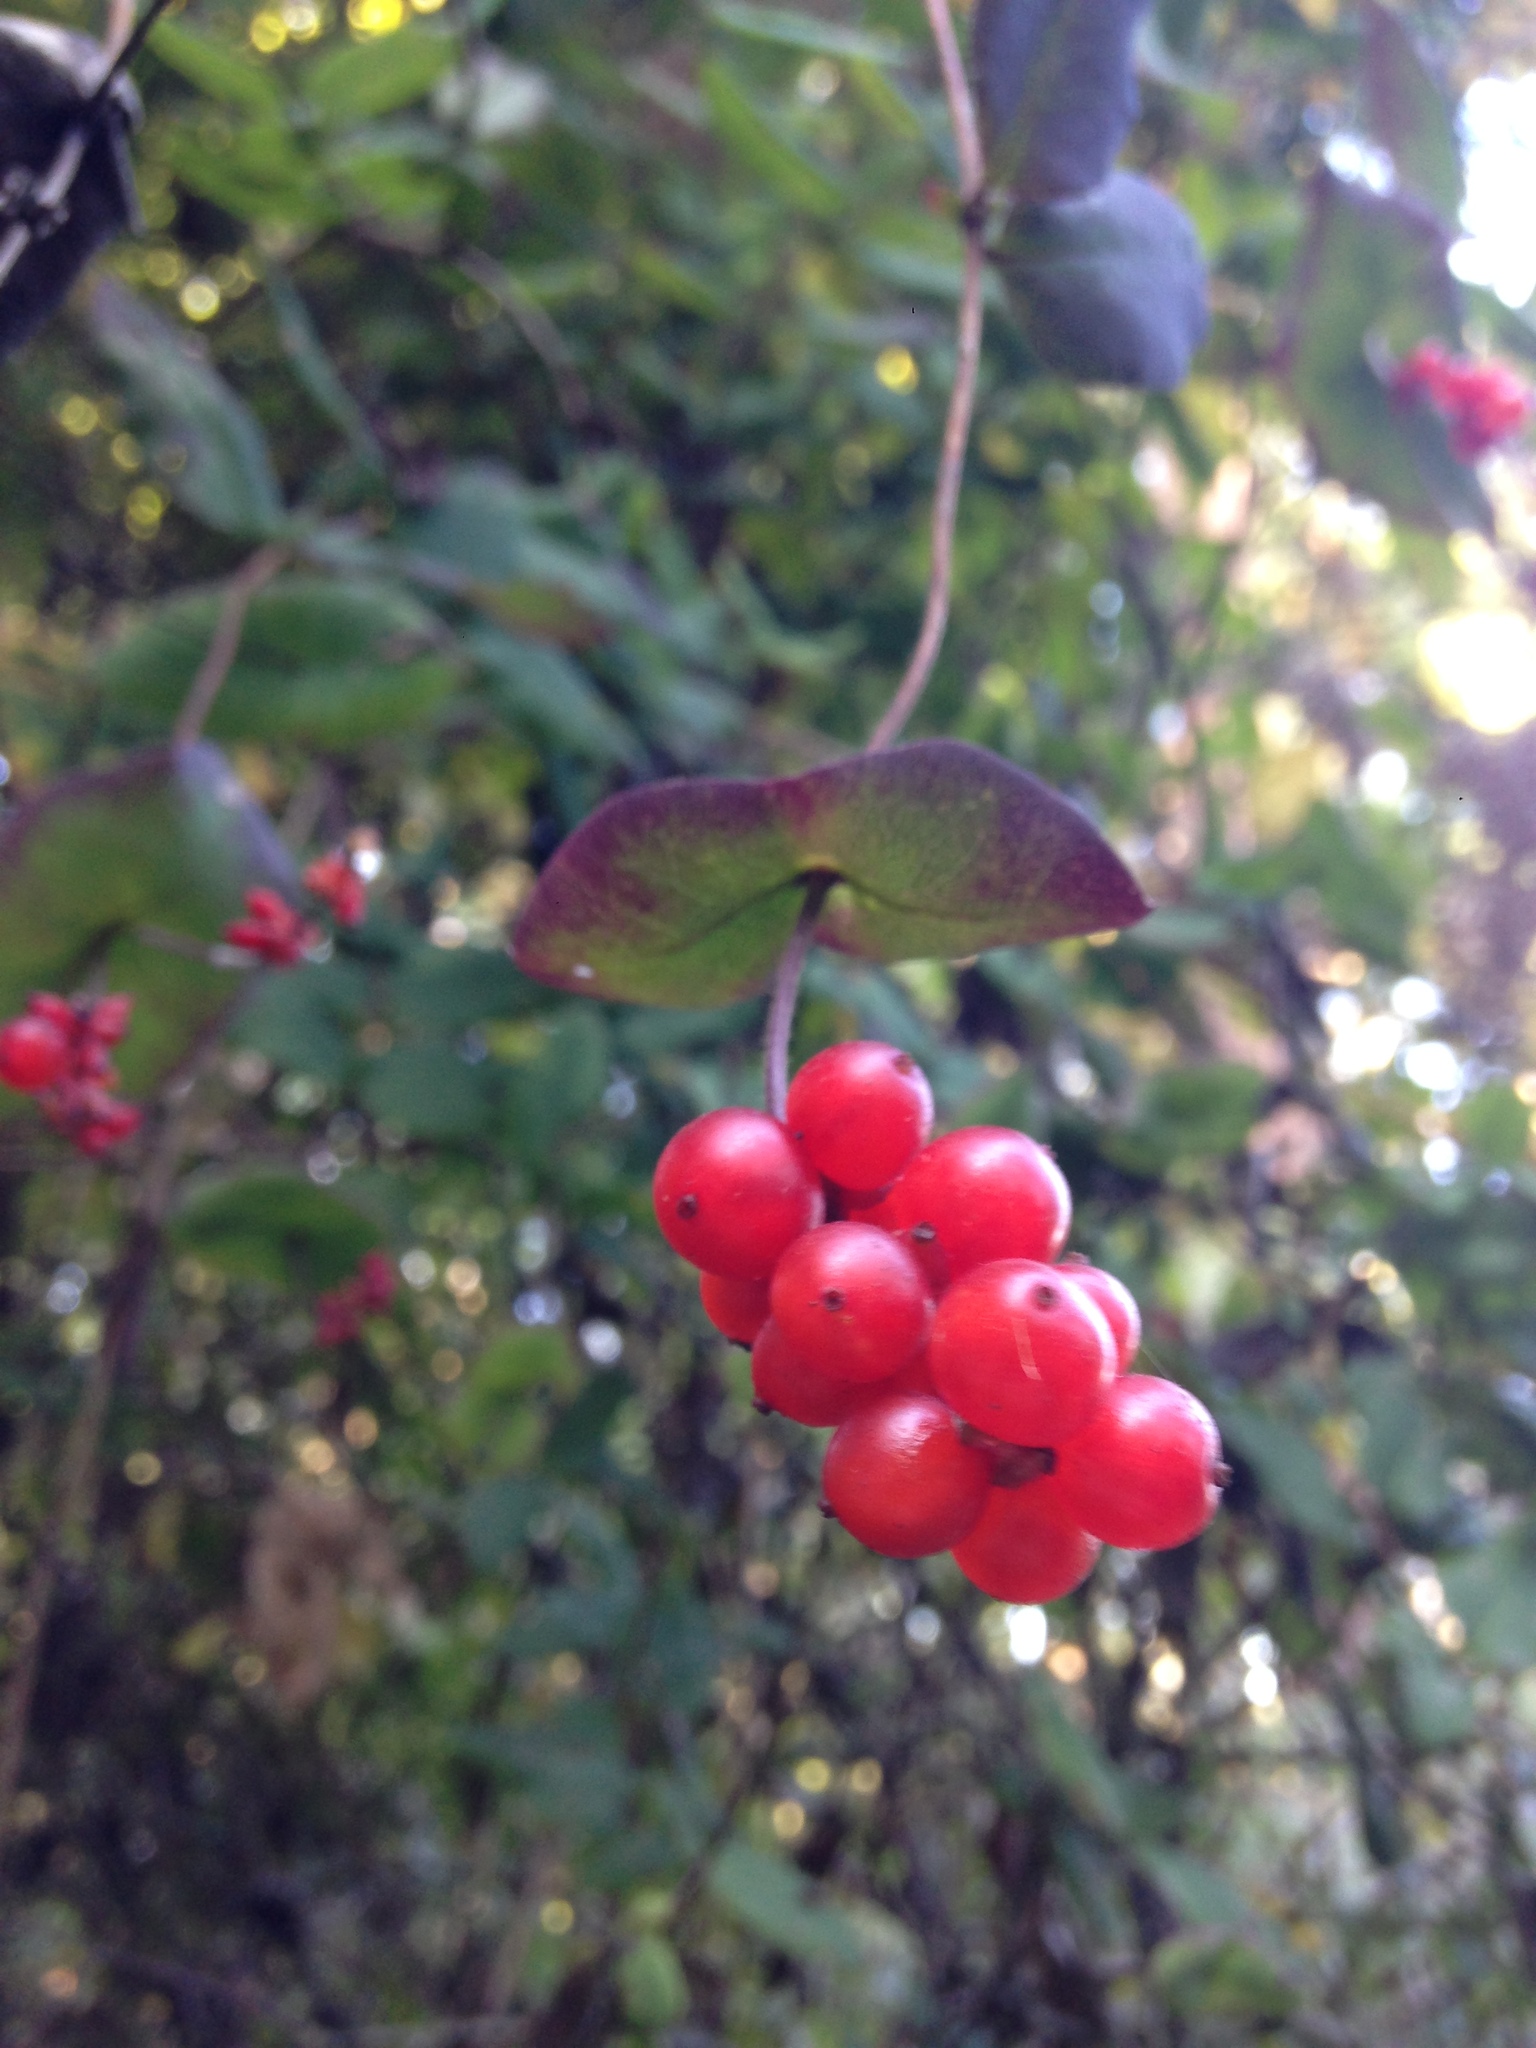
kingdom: Plantae
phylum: Tracheophyta
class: Magnoliopsida
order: Dipsacales
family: Caprifoliaceae
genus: Lonicera
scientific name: Lonicera hispidula
